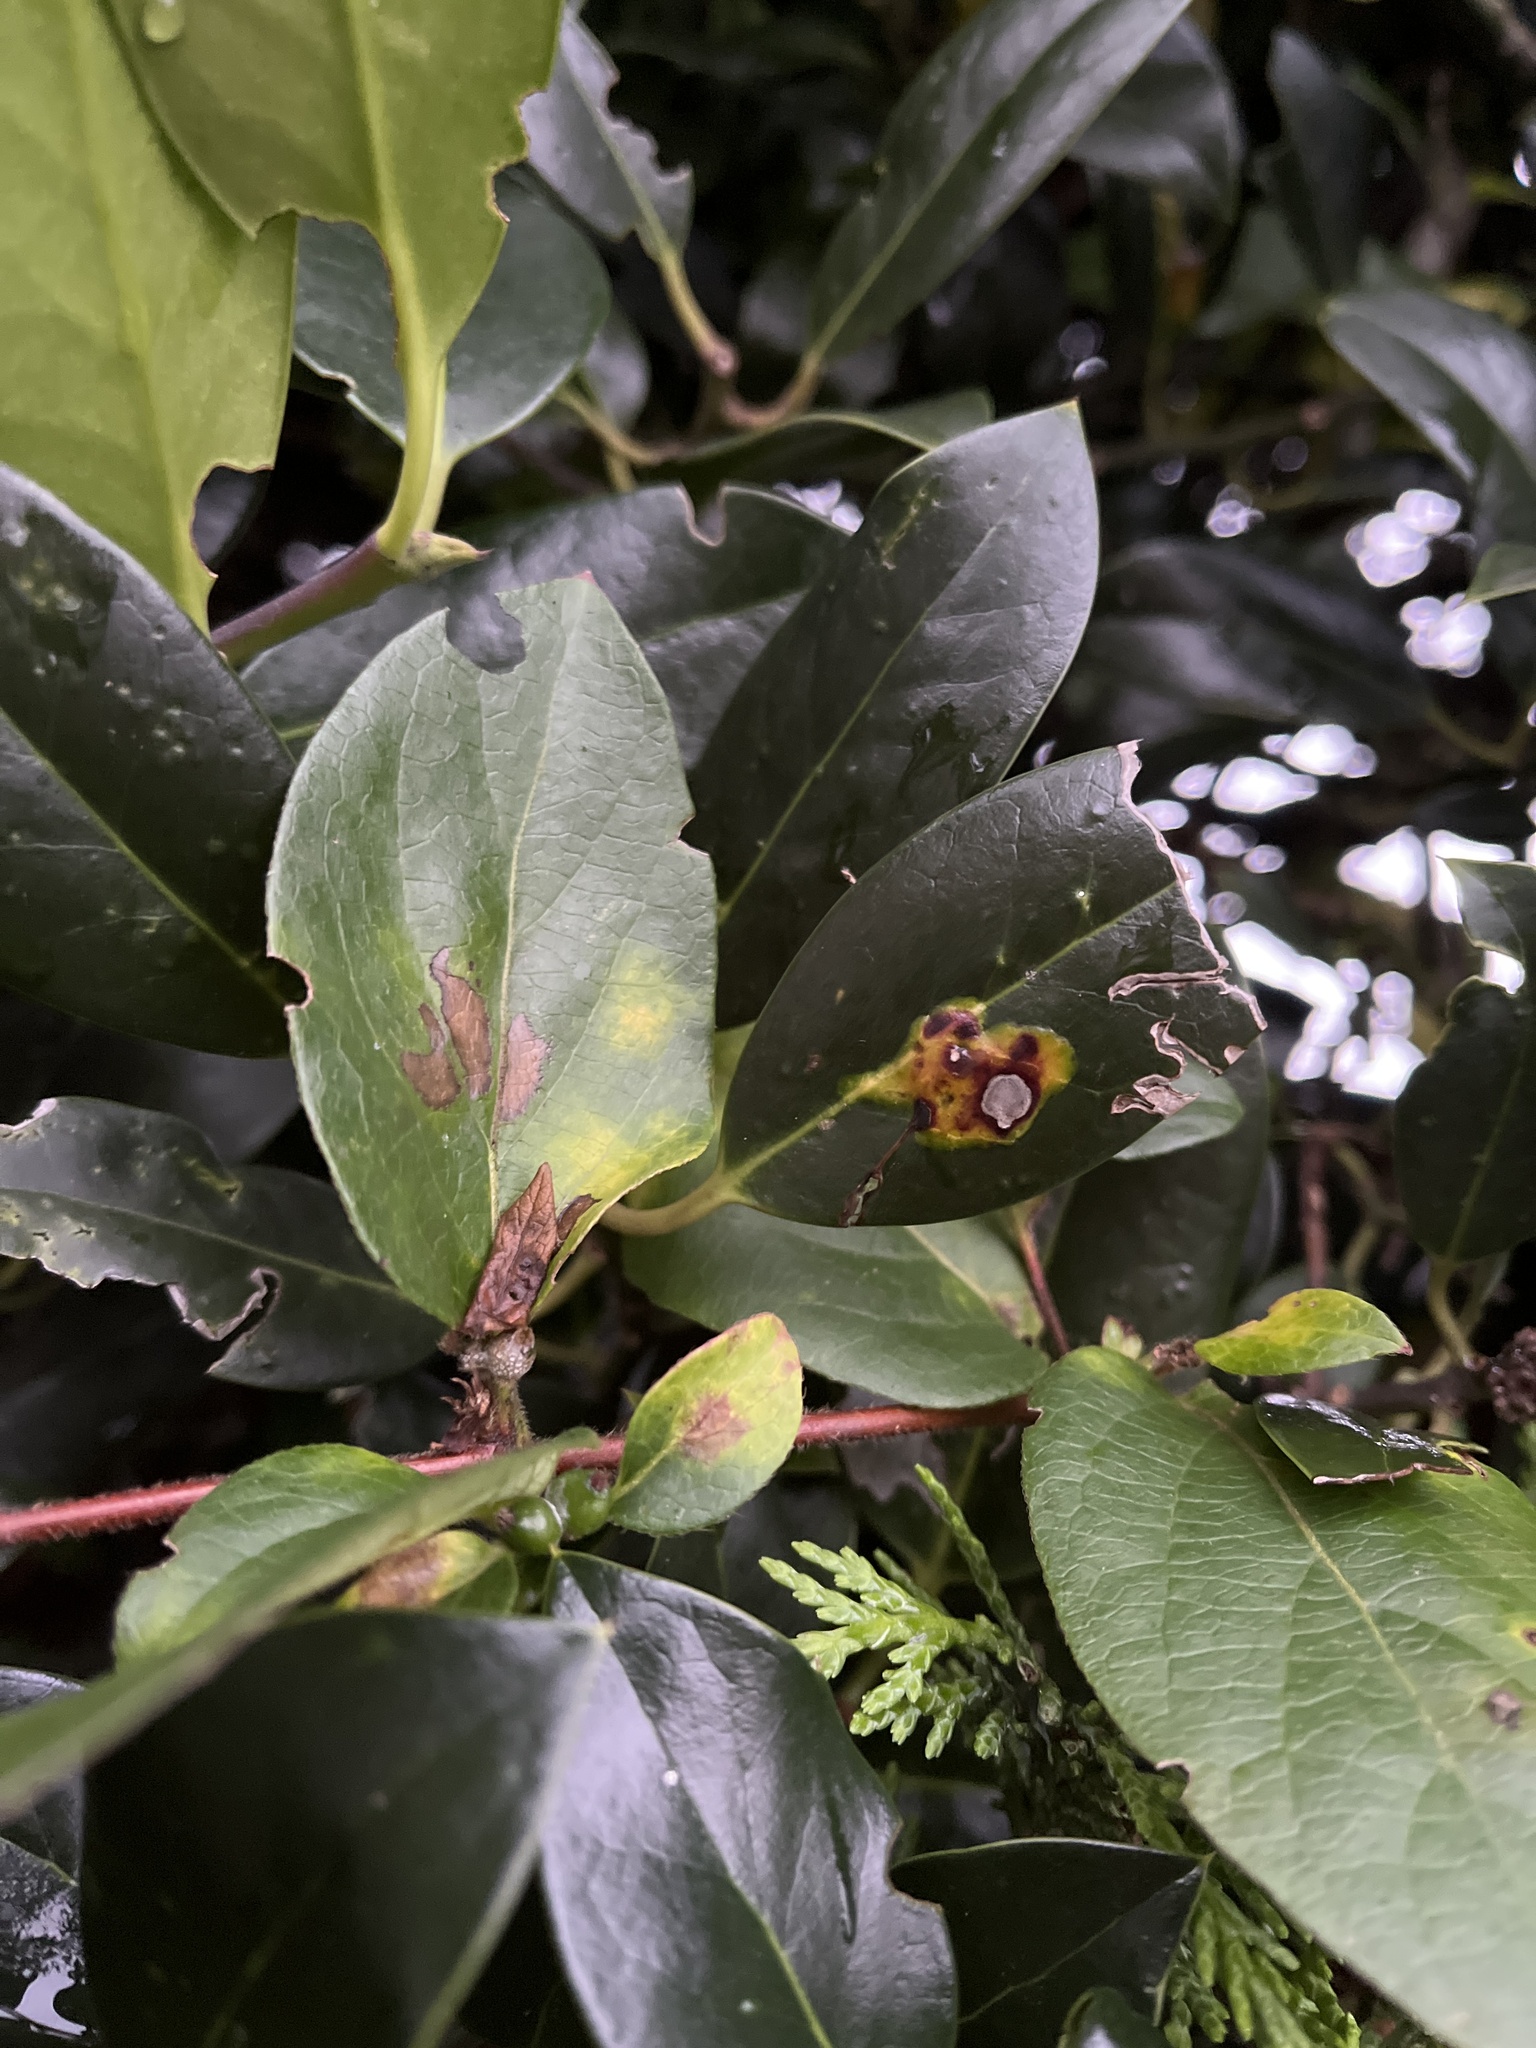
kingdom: Animalia
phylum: Arthropoda
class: Insecta
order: Diptera
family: Agromyzidae
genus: Phytomyza
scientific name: Phytomyza ilicis
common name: Holly leafminer
